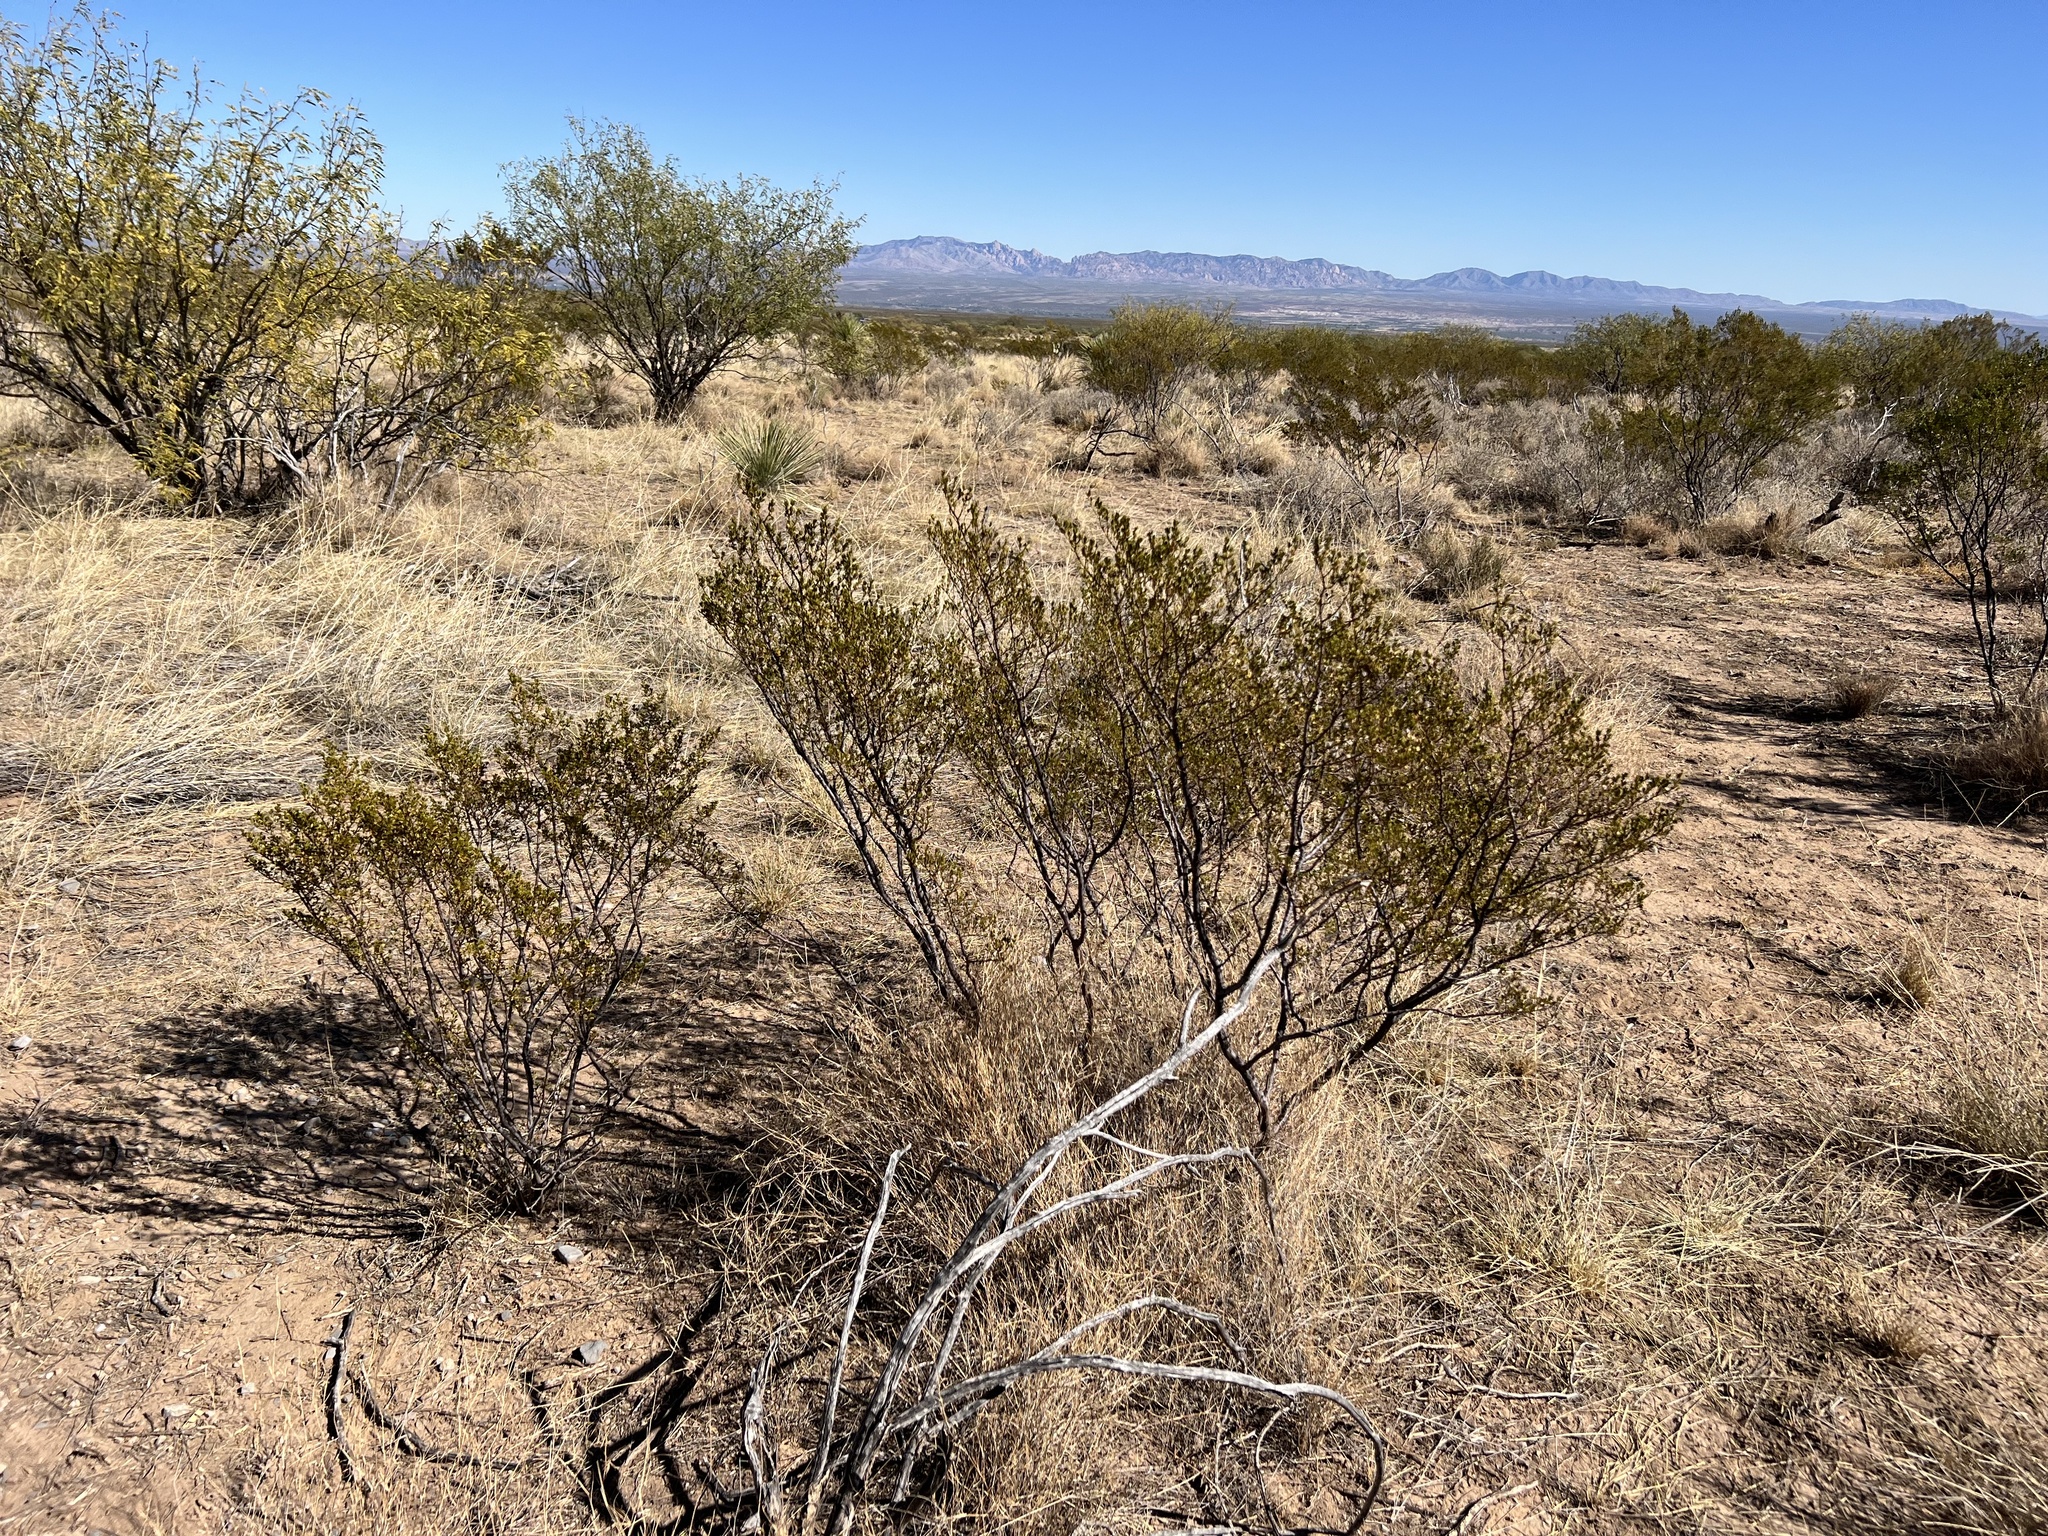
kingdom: Plantae
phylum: Tracheophyta
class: Magnoliopsida
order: Zygophyllales
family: Zygophyllaceae
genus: Larrea
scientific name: Larrea tridentata
